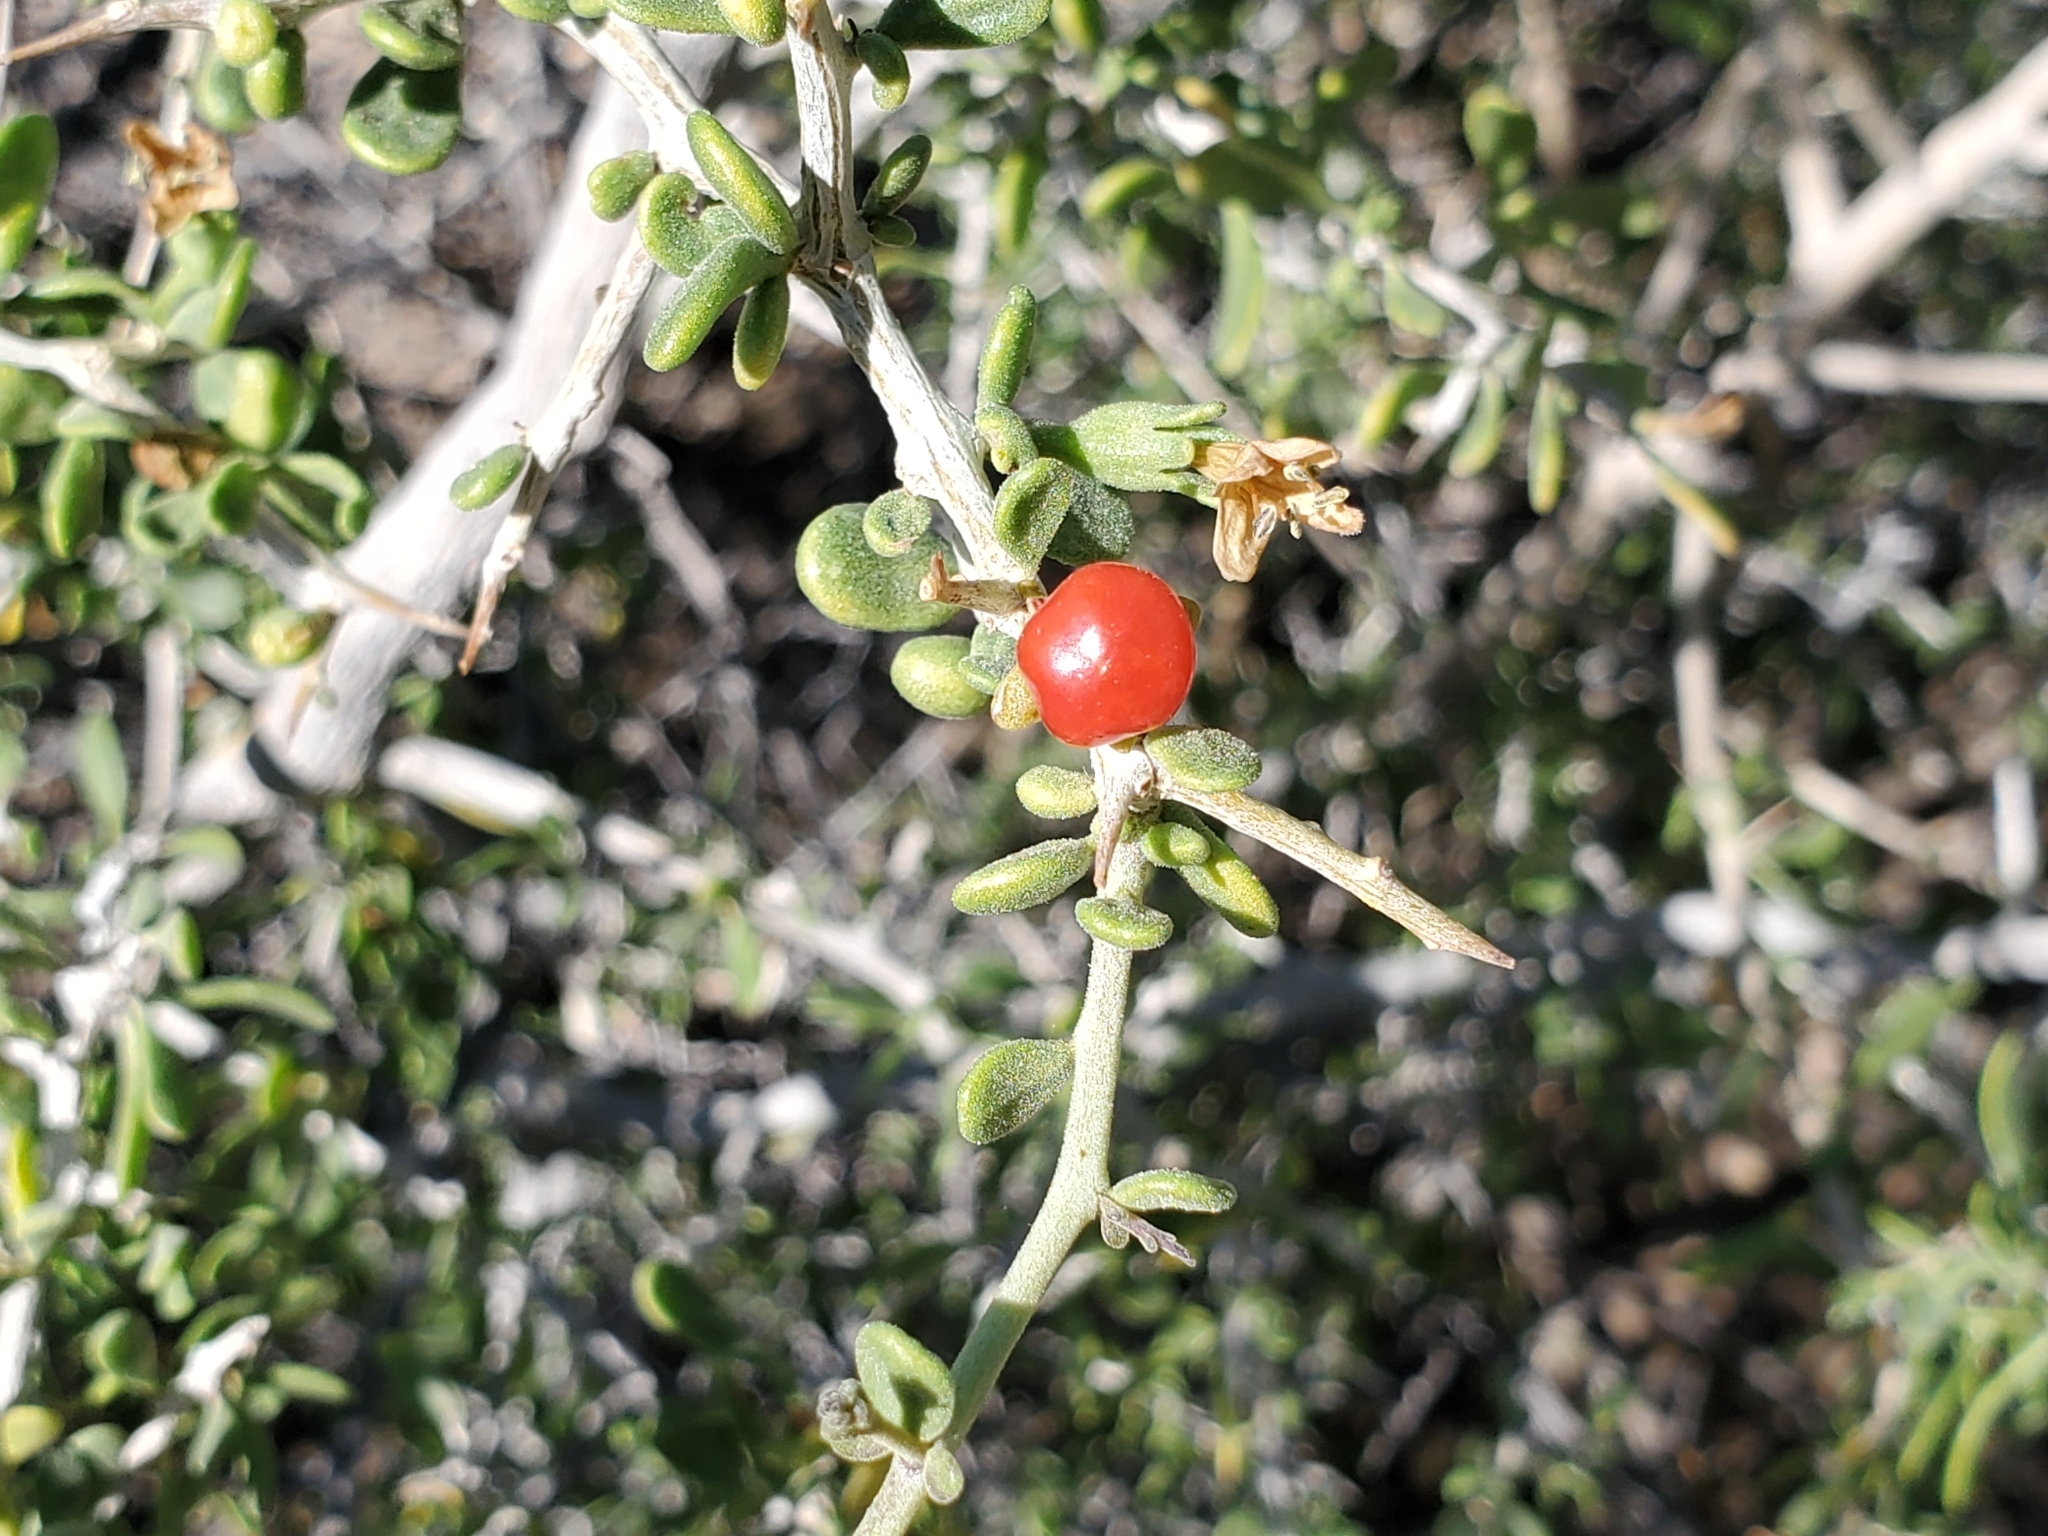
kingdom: Plantae
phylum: Tracheophyta
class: Magnoliopsida
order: Solanales
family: Solanaceae
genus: Lycium
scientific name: Lycium andersonii
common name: Water-jacket
